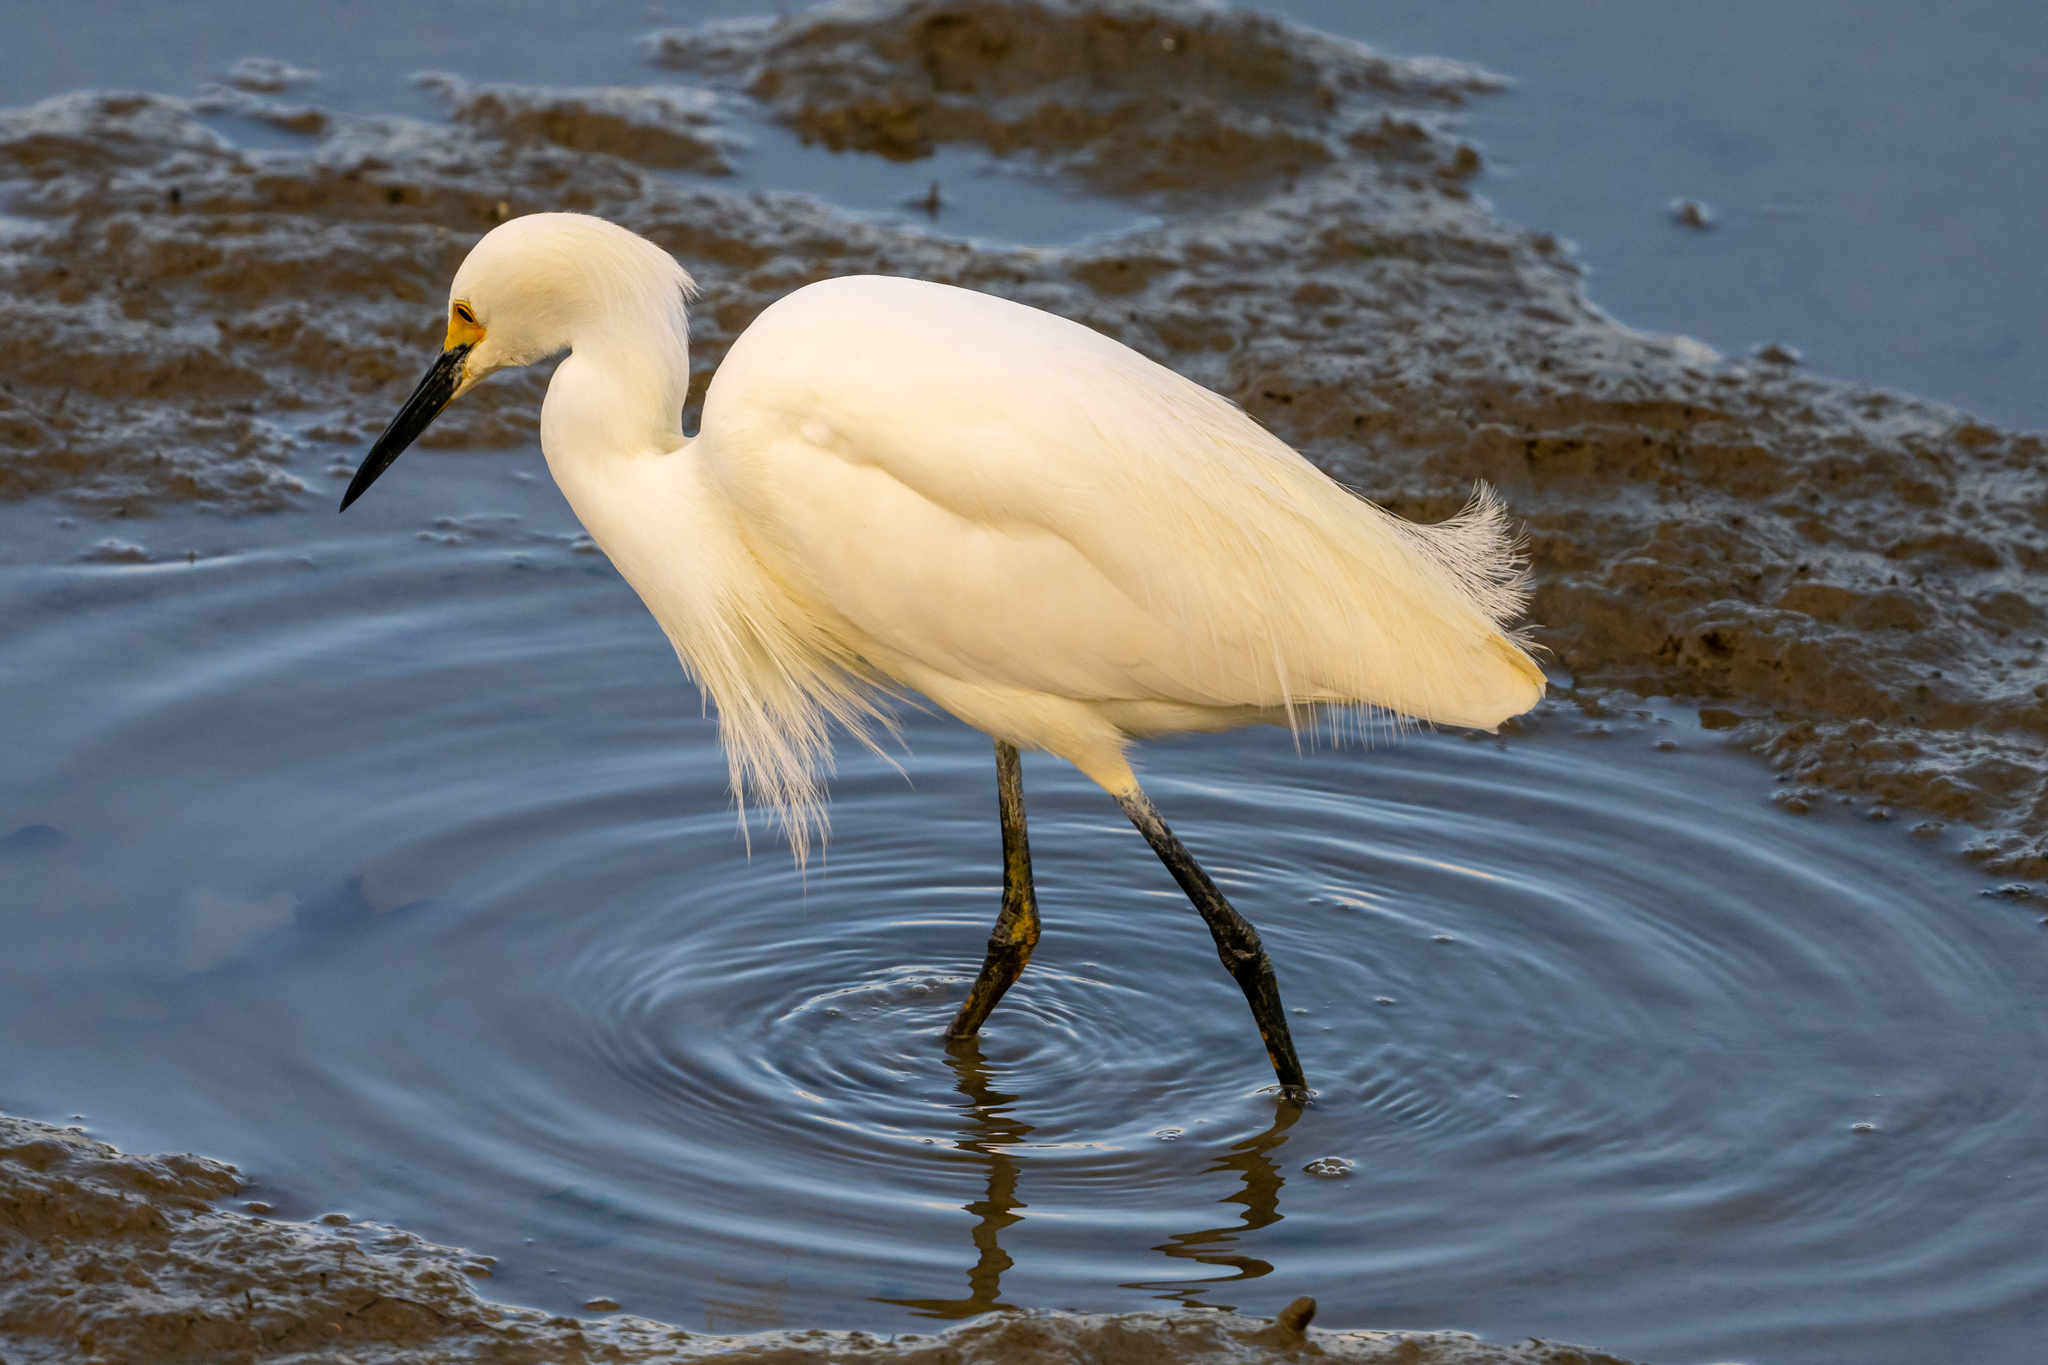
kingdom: Animalia
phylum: Chordata
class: Aves
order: Pelecaniformes
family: Ardeidae
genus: Egretta
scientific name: Egretta thula
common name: Snowy egret
